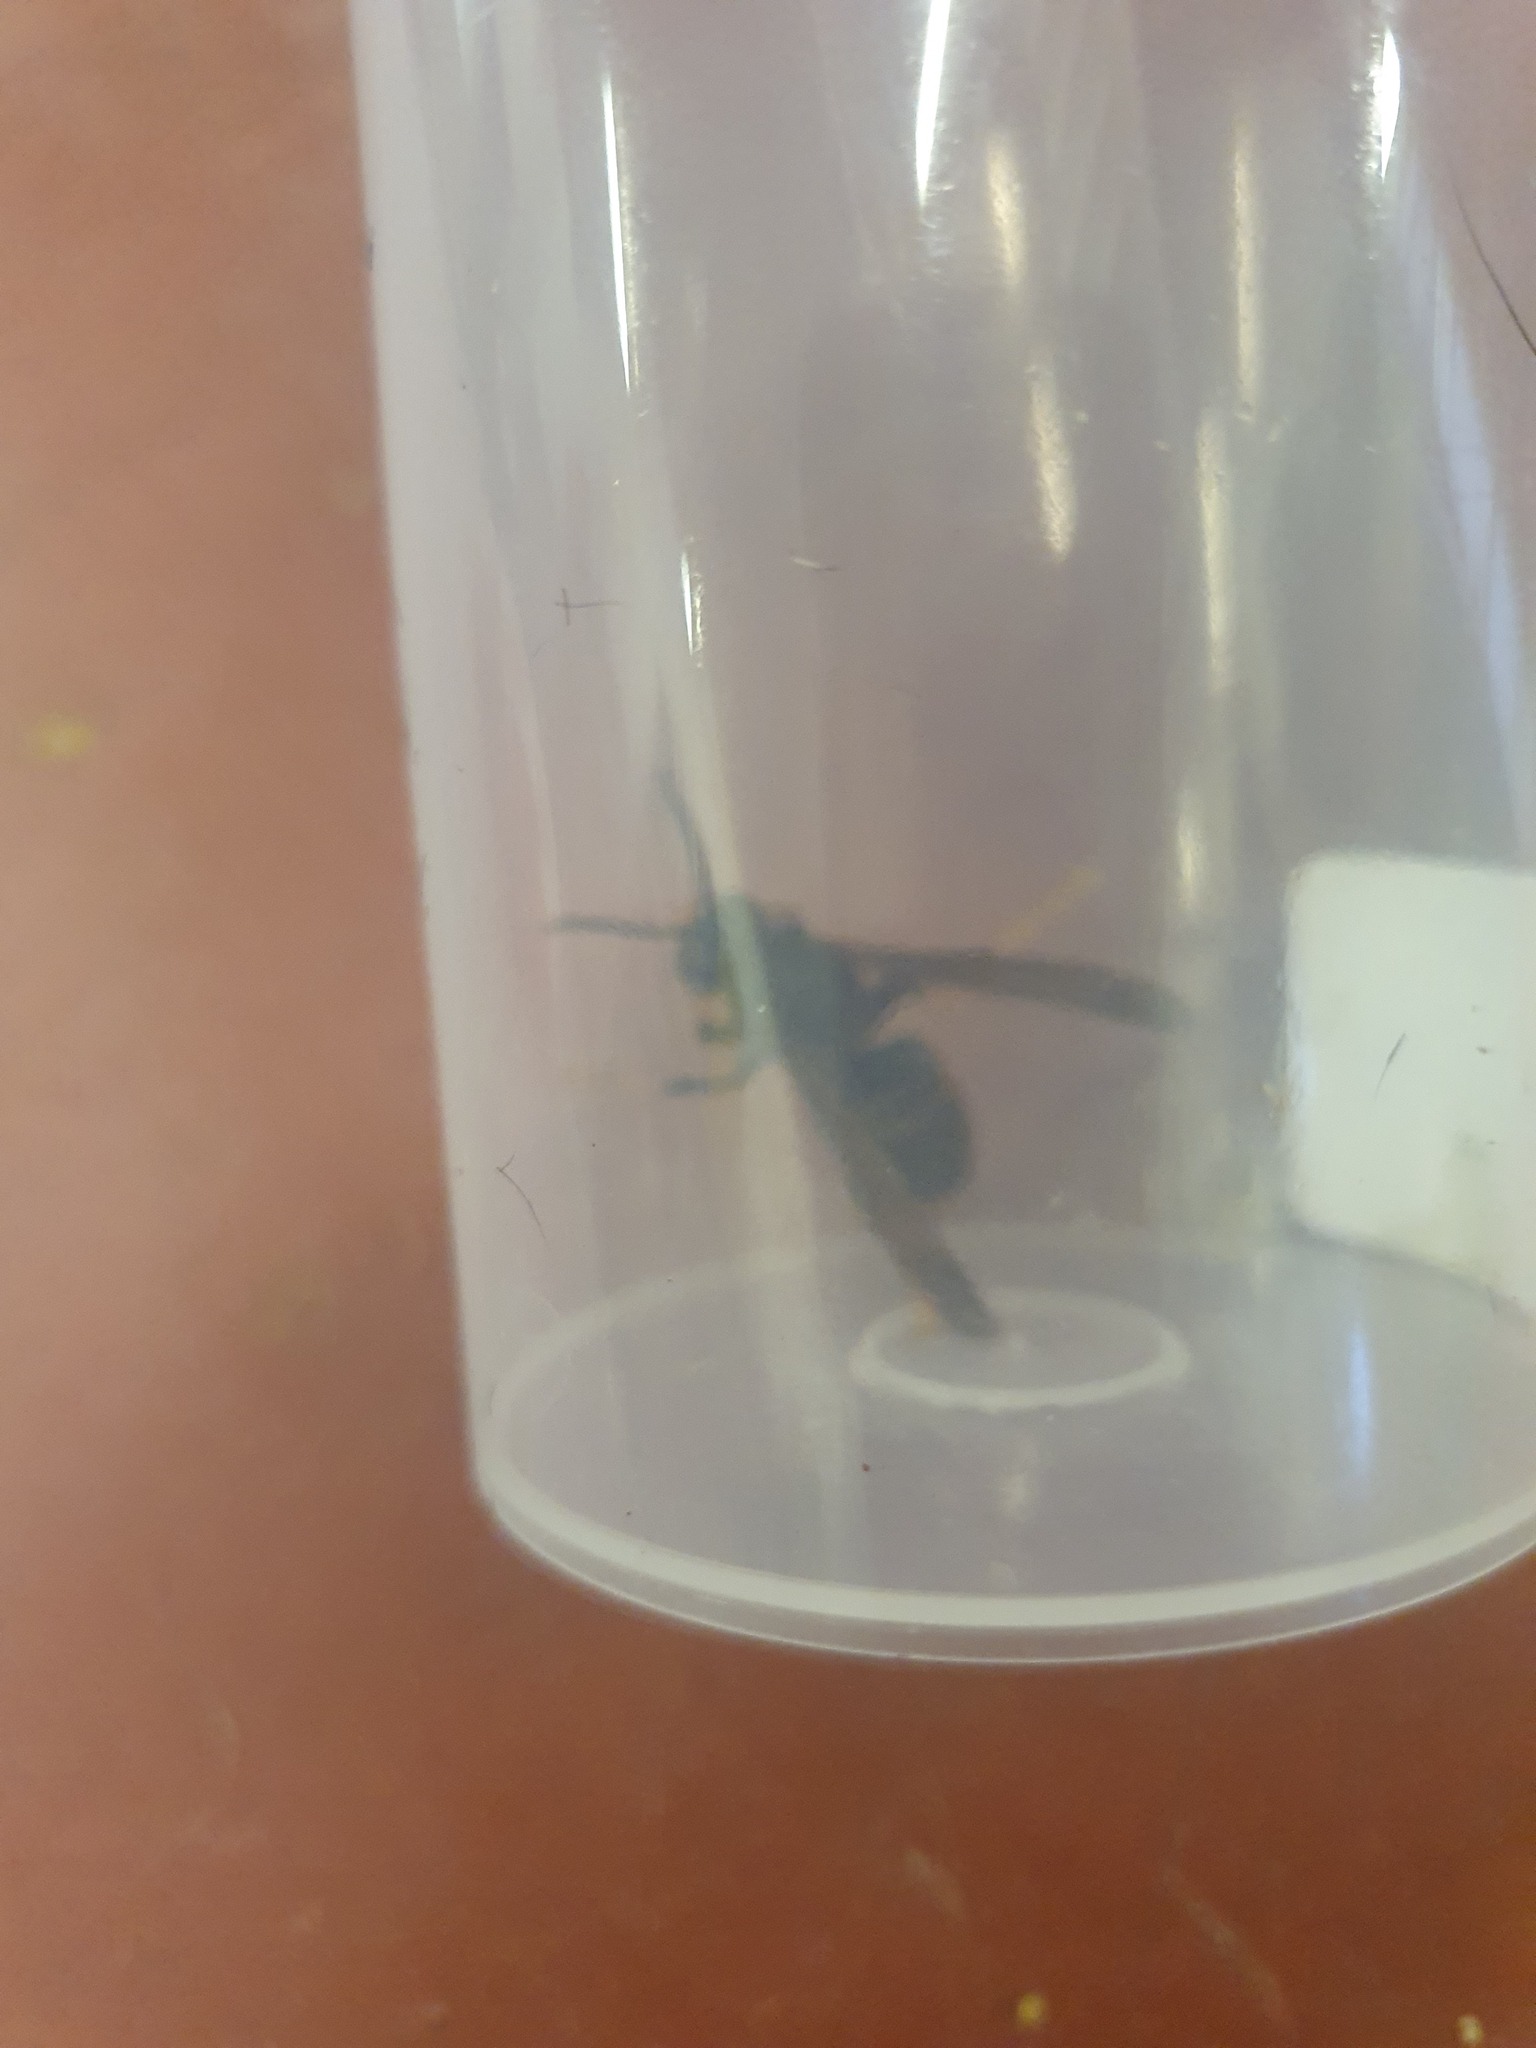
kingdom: Animalia
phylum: Arthropoda
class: Insecta
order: Hymenoptera
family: Vespidae
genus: Vespa
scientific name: Vespa velutina
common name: Asian hornet
